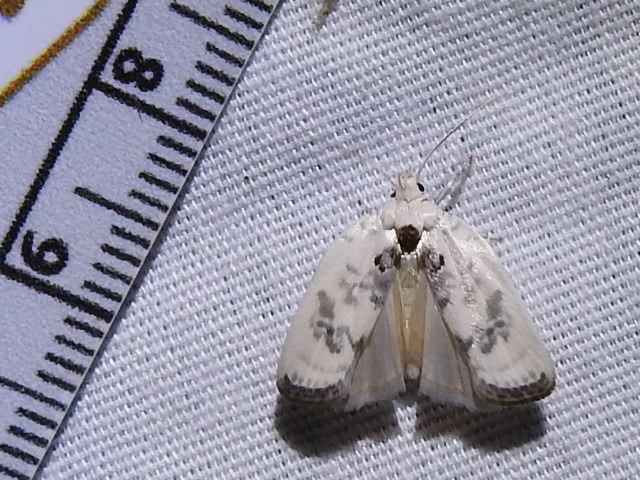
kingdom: Animalia
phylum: Arthropoda
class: Insecta
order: Lepidoptera
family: Depressariidae
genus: Antaeotricha
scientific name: Antaeotricha leucillana
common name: Pale gray bird-dropping moth
